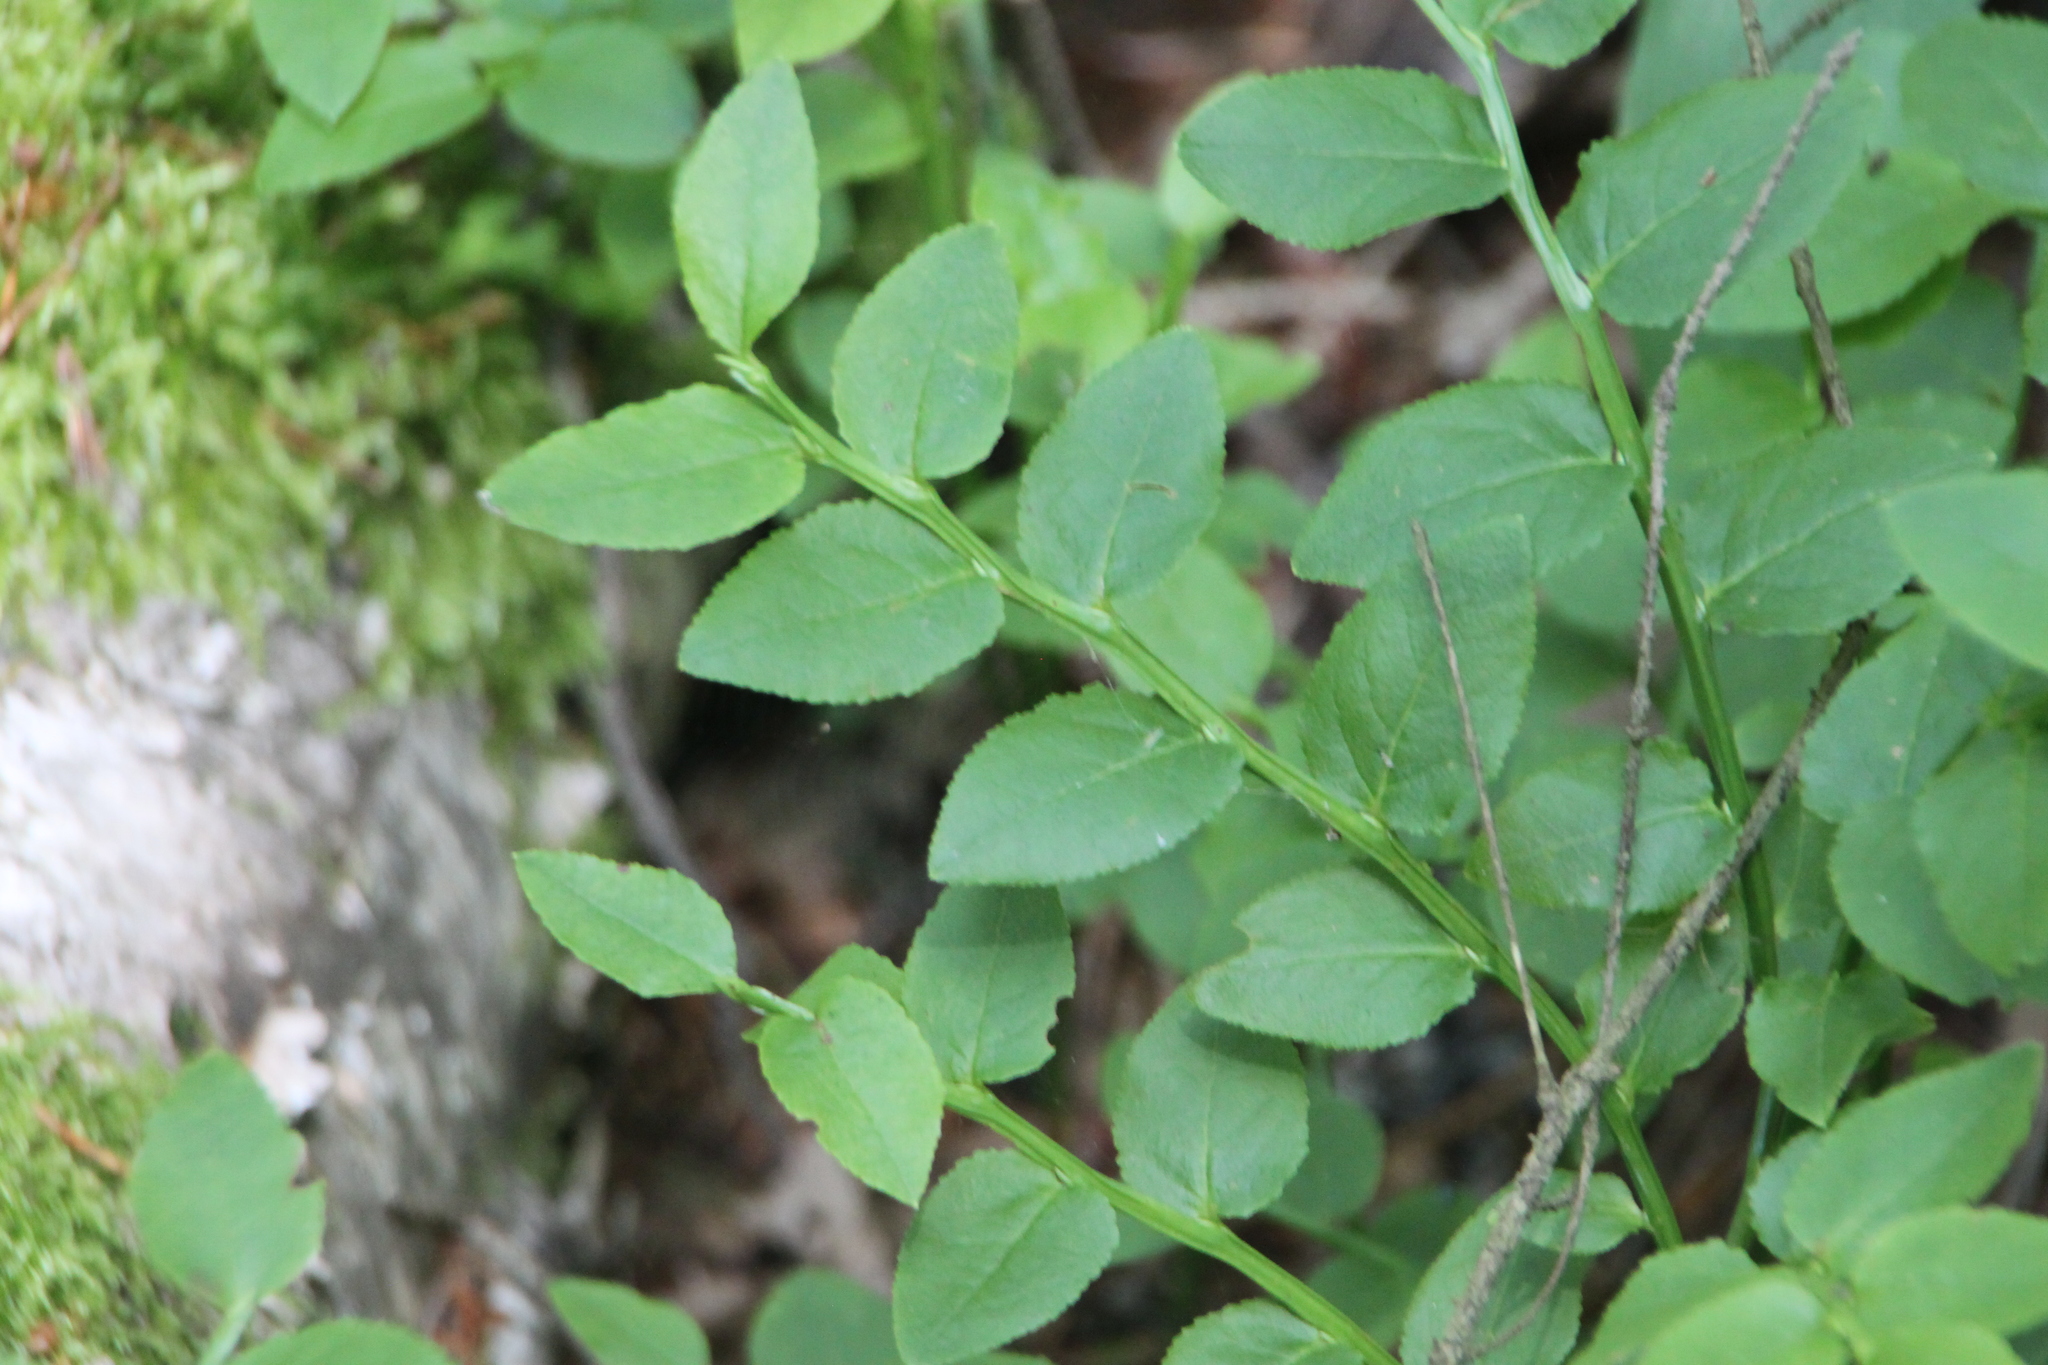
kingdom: Plantae
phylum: Tracheophyta
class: Magnoliopsida
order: Ericales
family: Ericaceae
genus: Vaccinium
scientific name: Vaccinium myrtillus
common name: Bilberry
